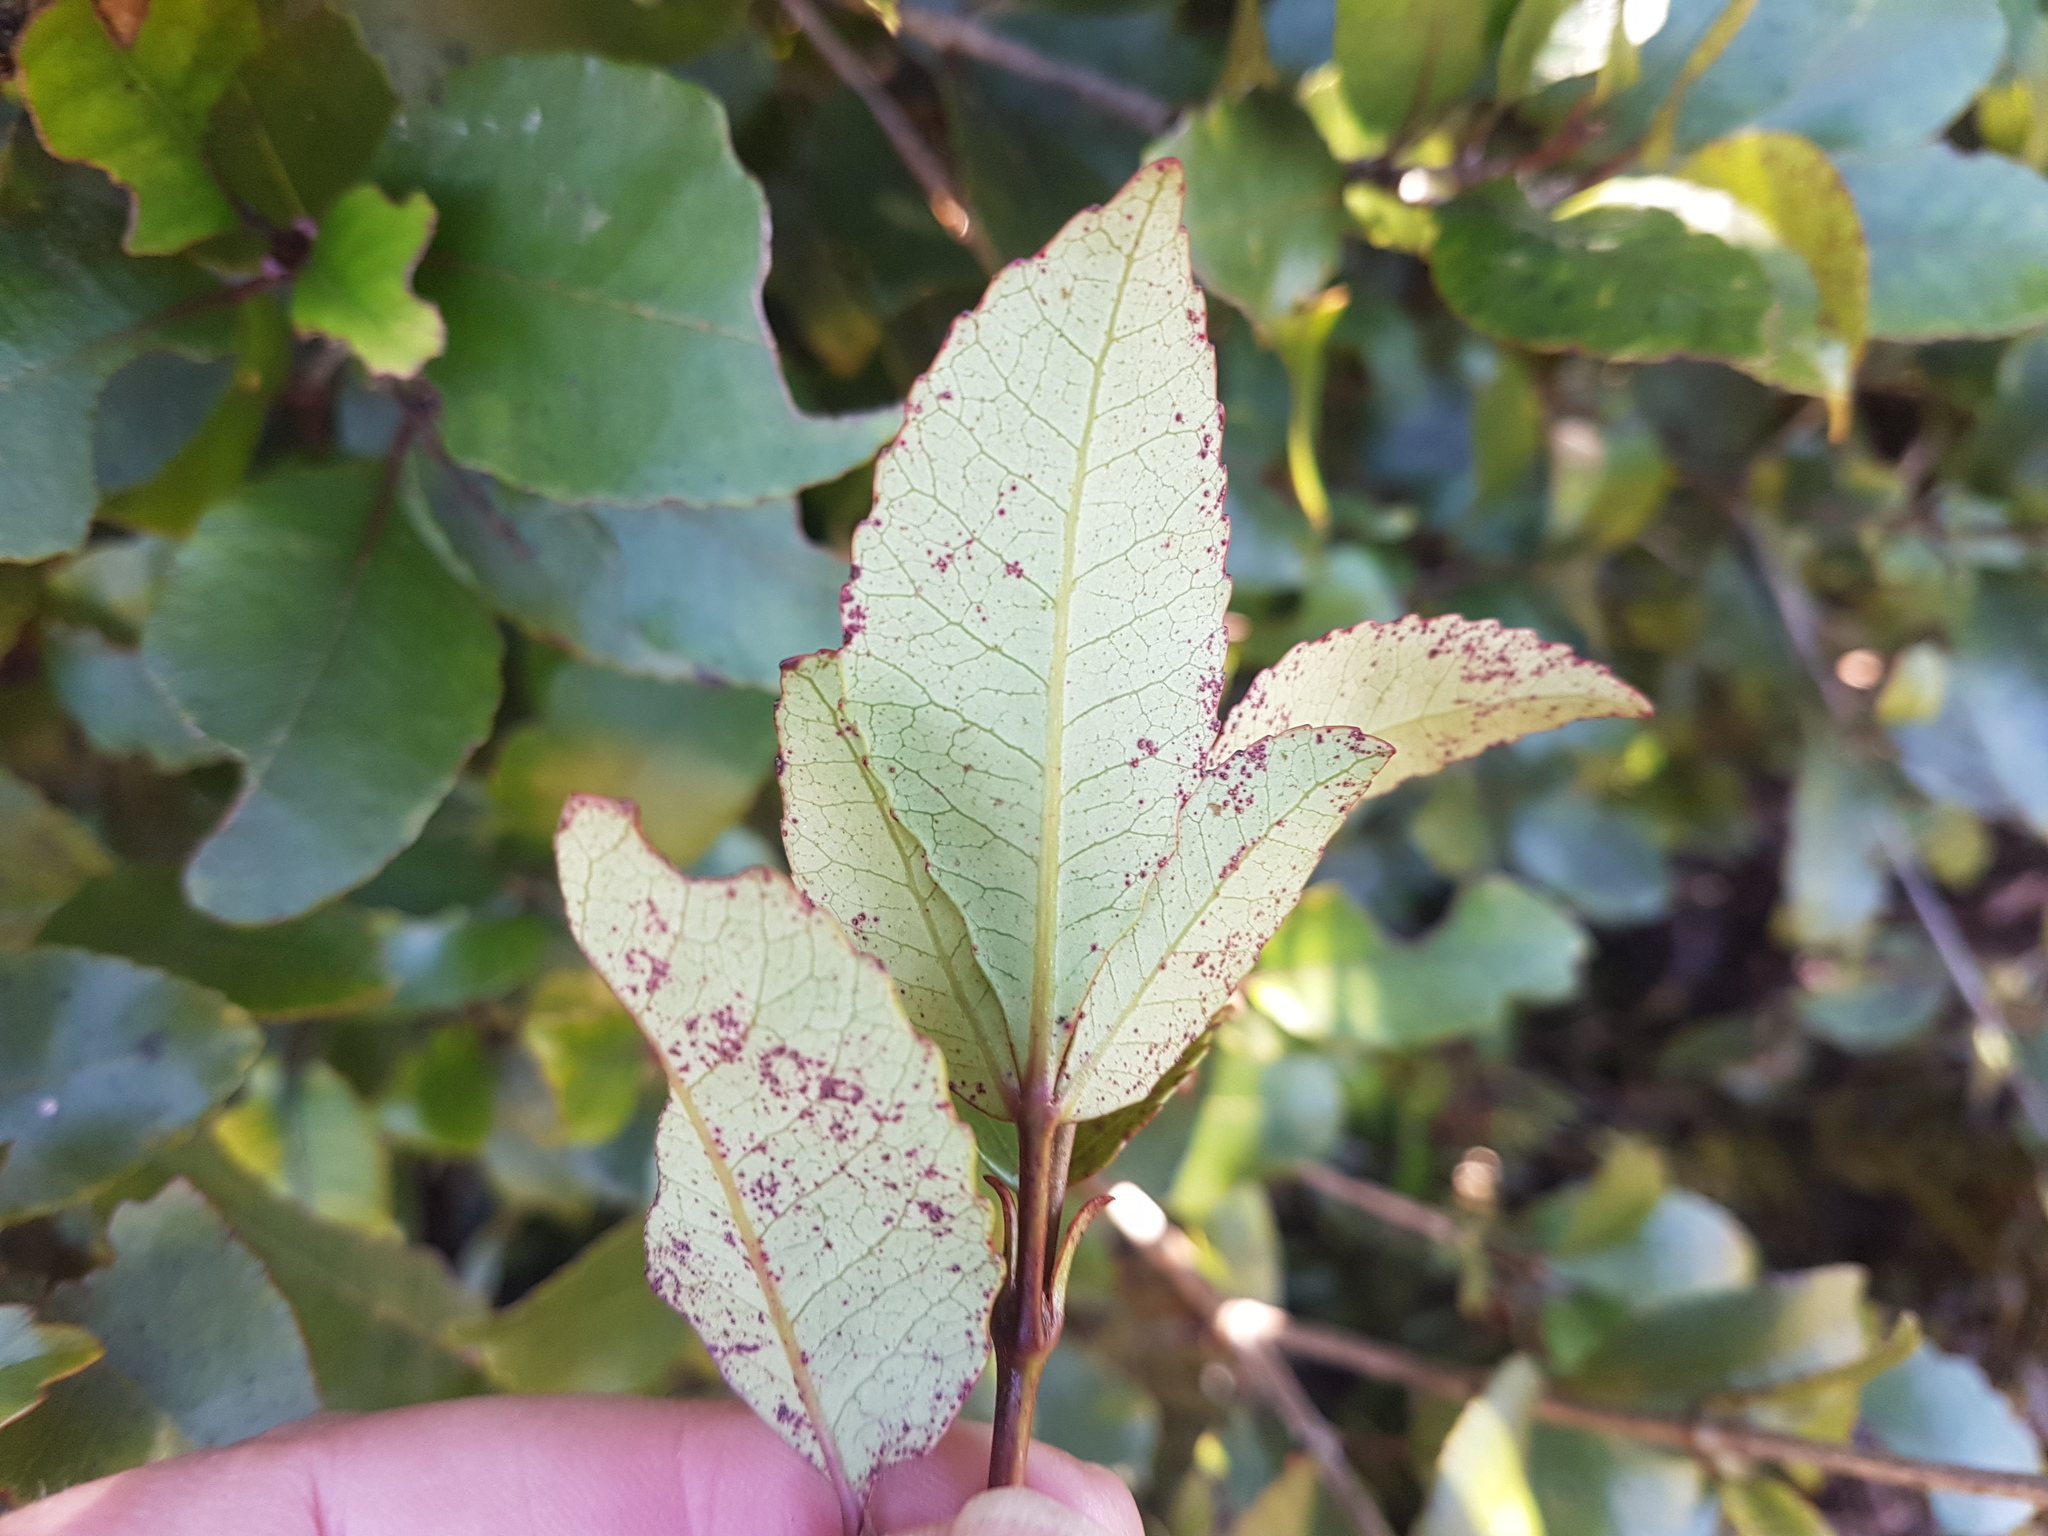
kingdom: Plantae
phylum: Tracheophyta
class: Magnoliopsida
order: Oxalidales
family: Cunoniaceae
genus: Pterophylla
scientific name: Pterophylla racemosa
